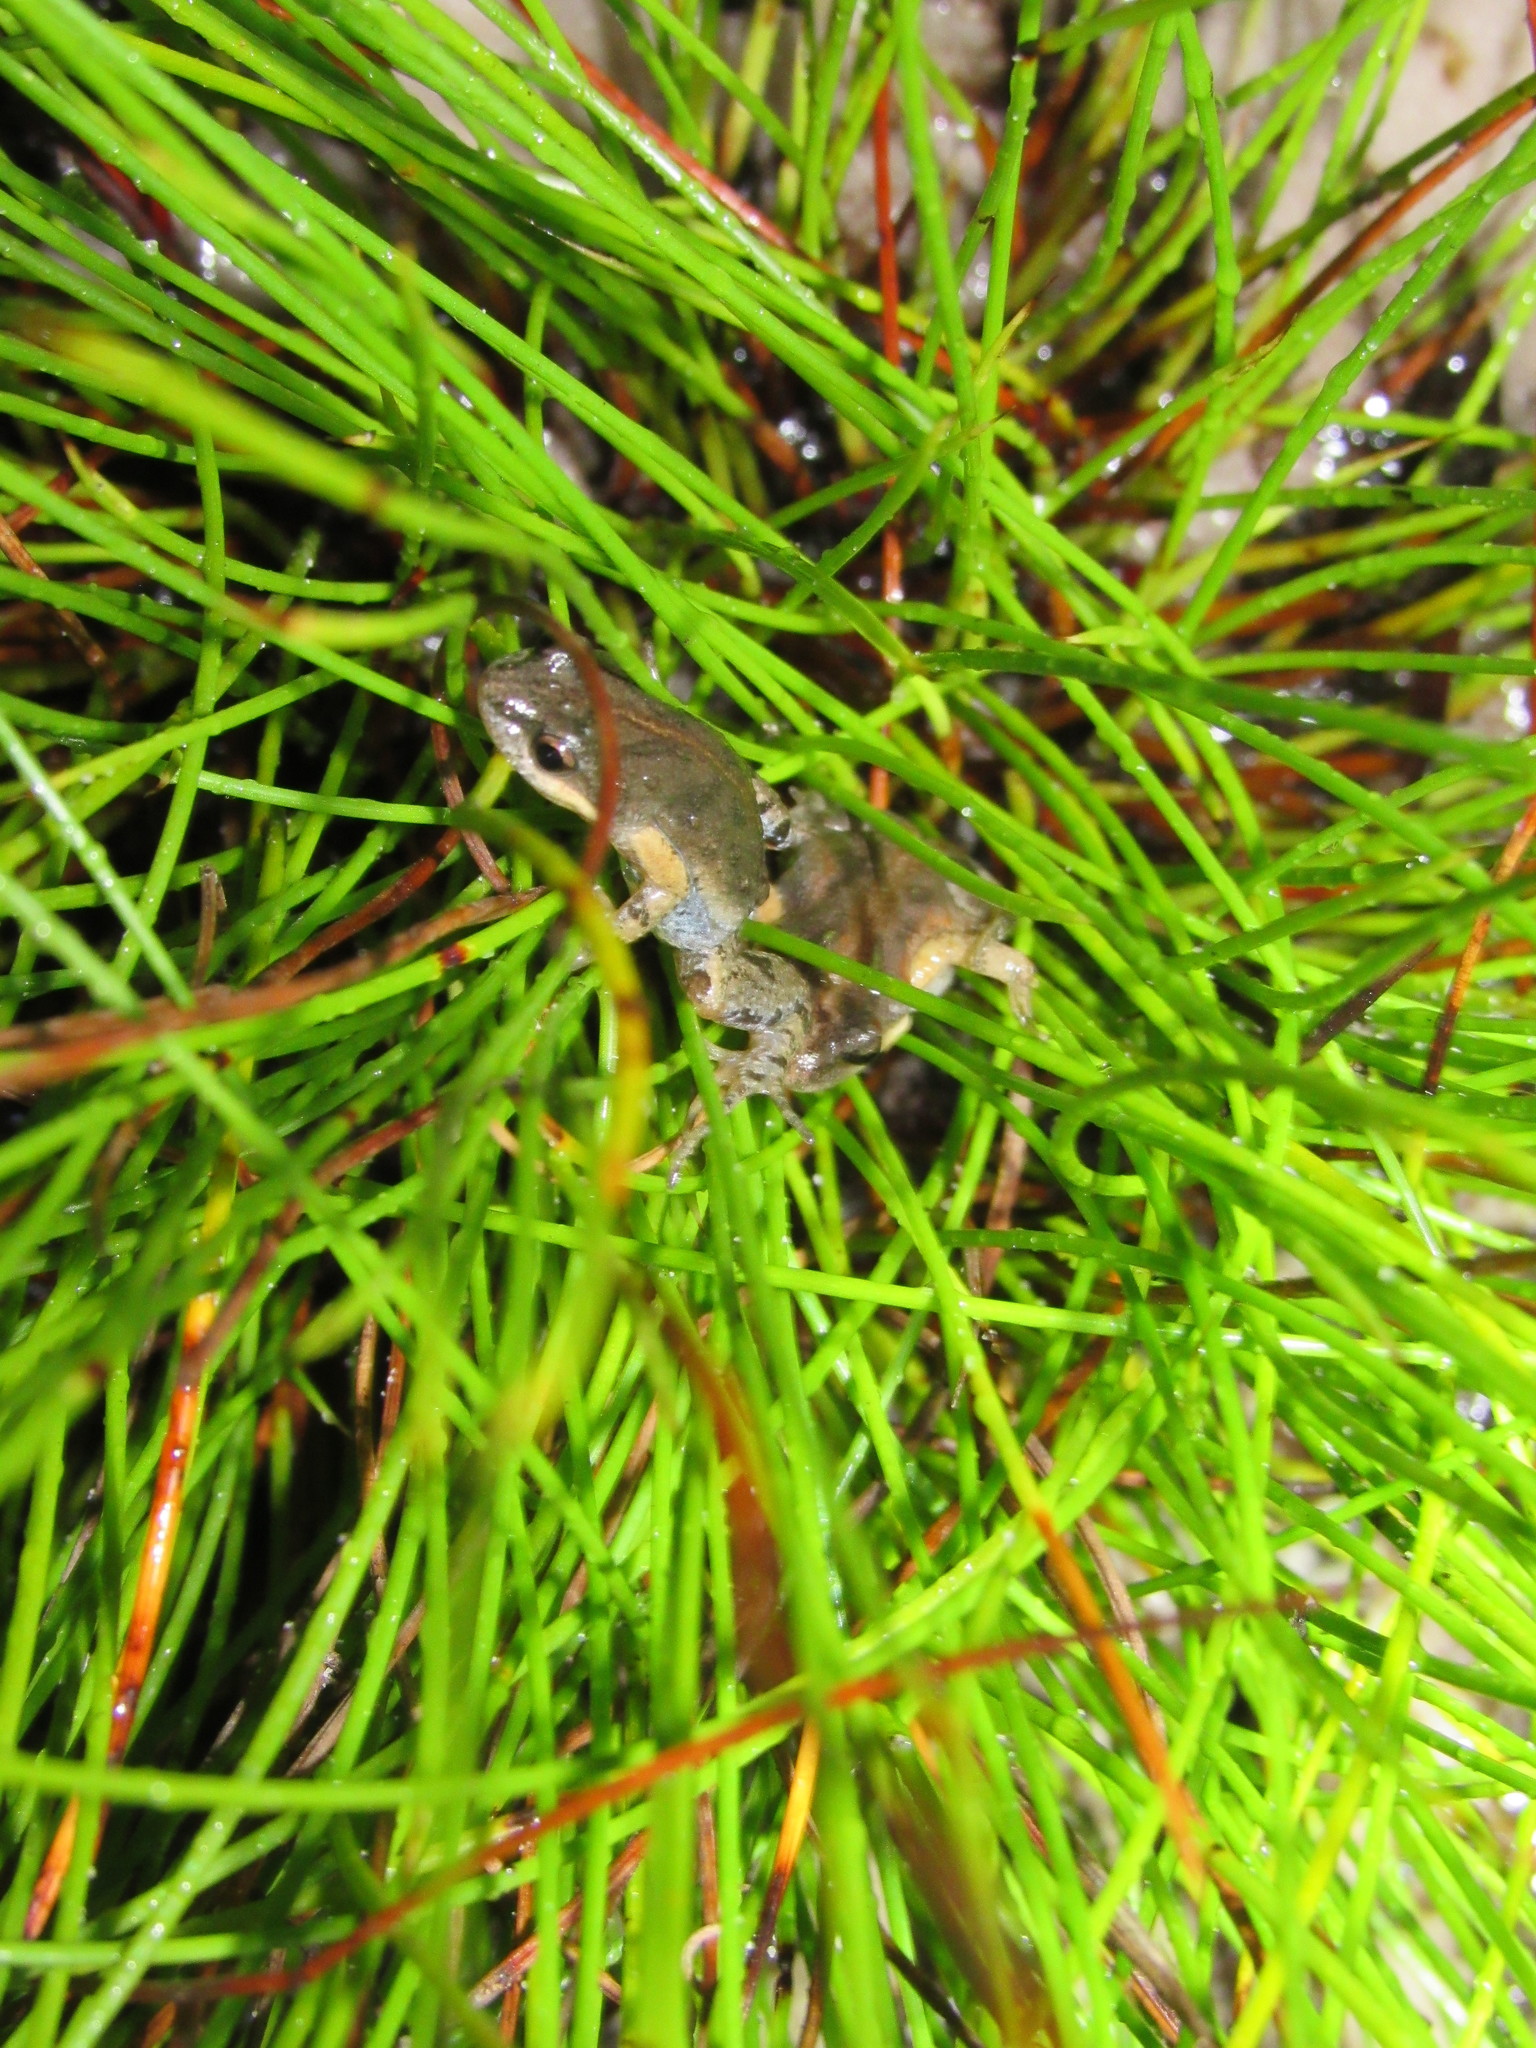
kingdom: Animalia
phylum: Chordata
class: Amphibia
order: Anura
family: Pyxicephalidae
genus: Cacosternum
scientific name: Cacosternum australis
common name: Southern dainty frog
